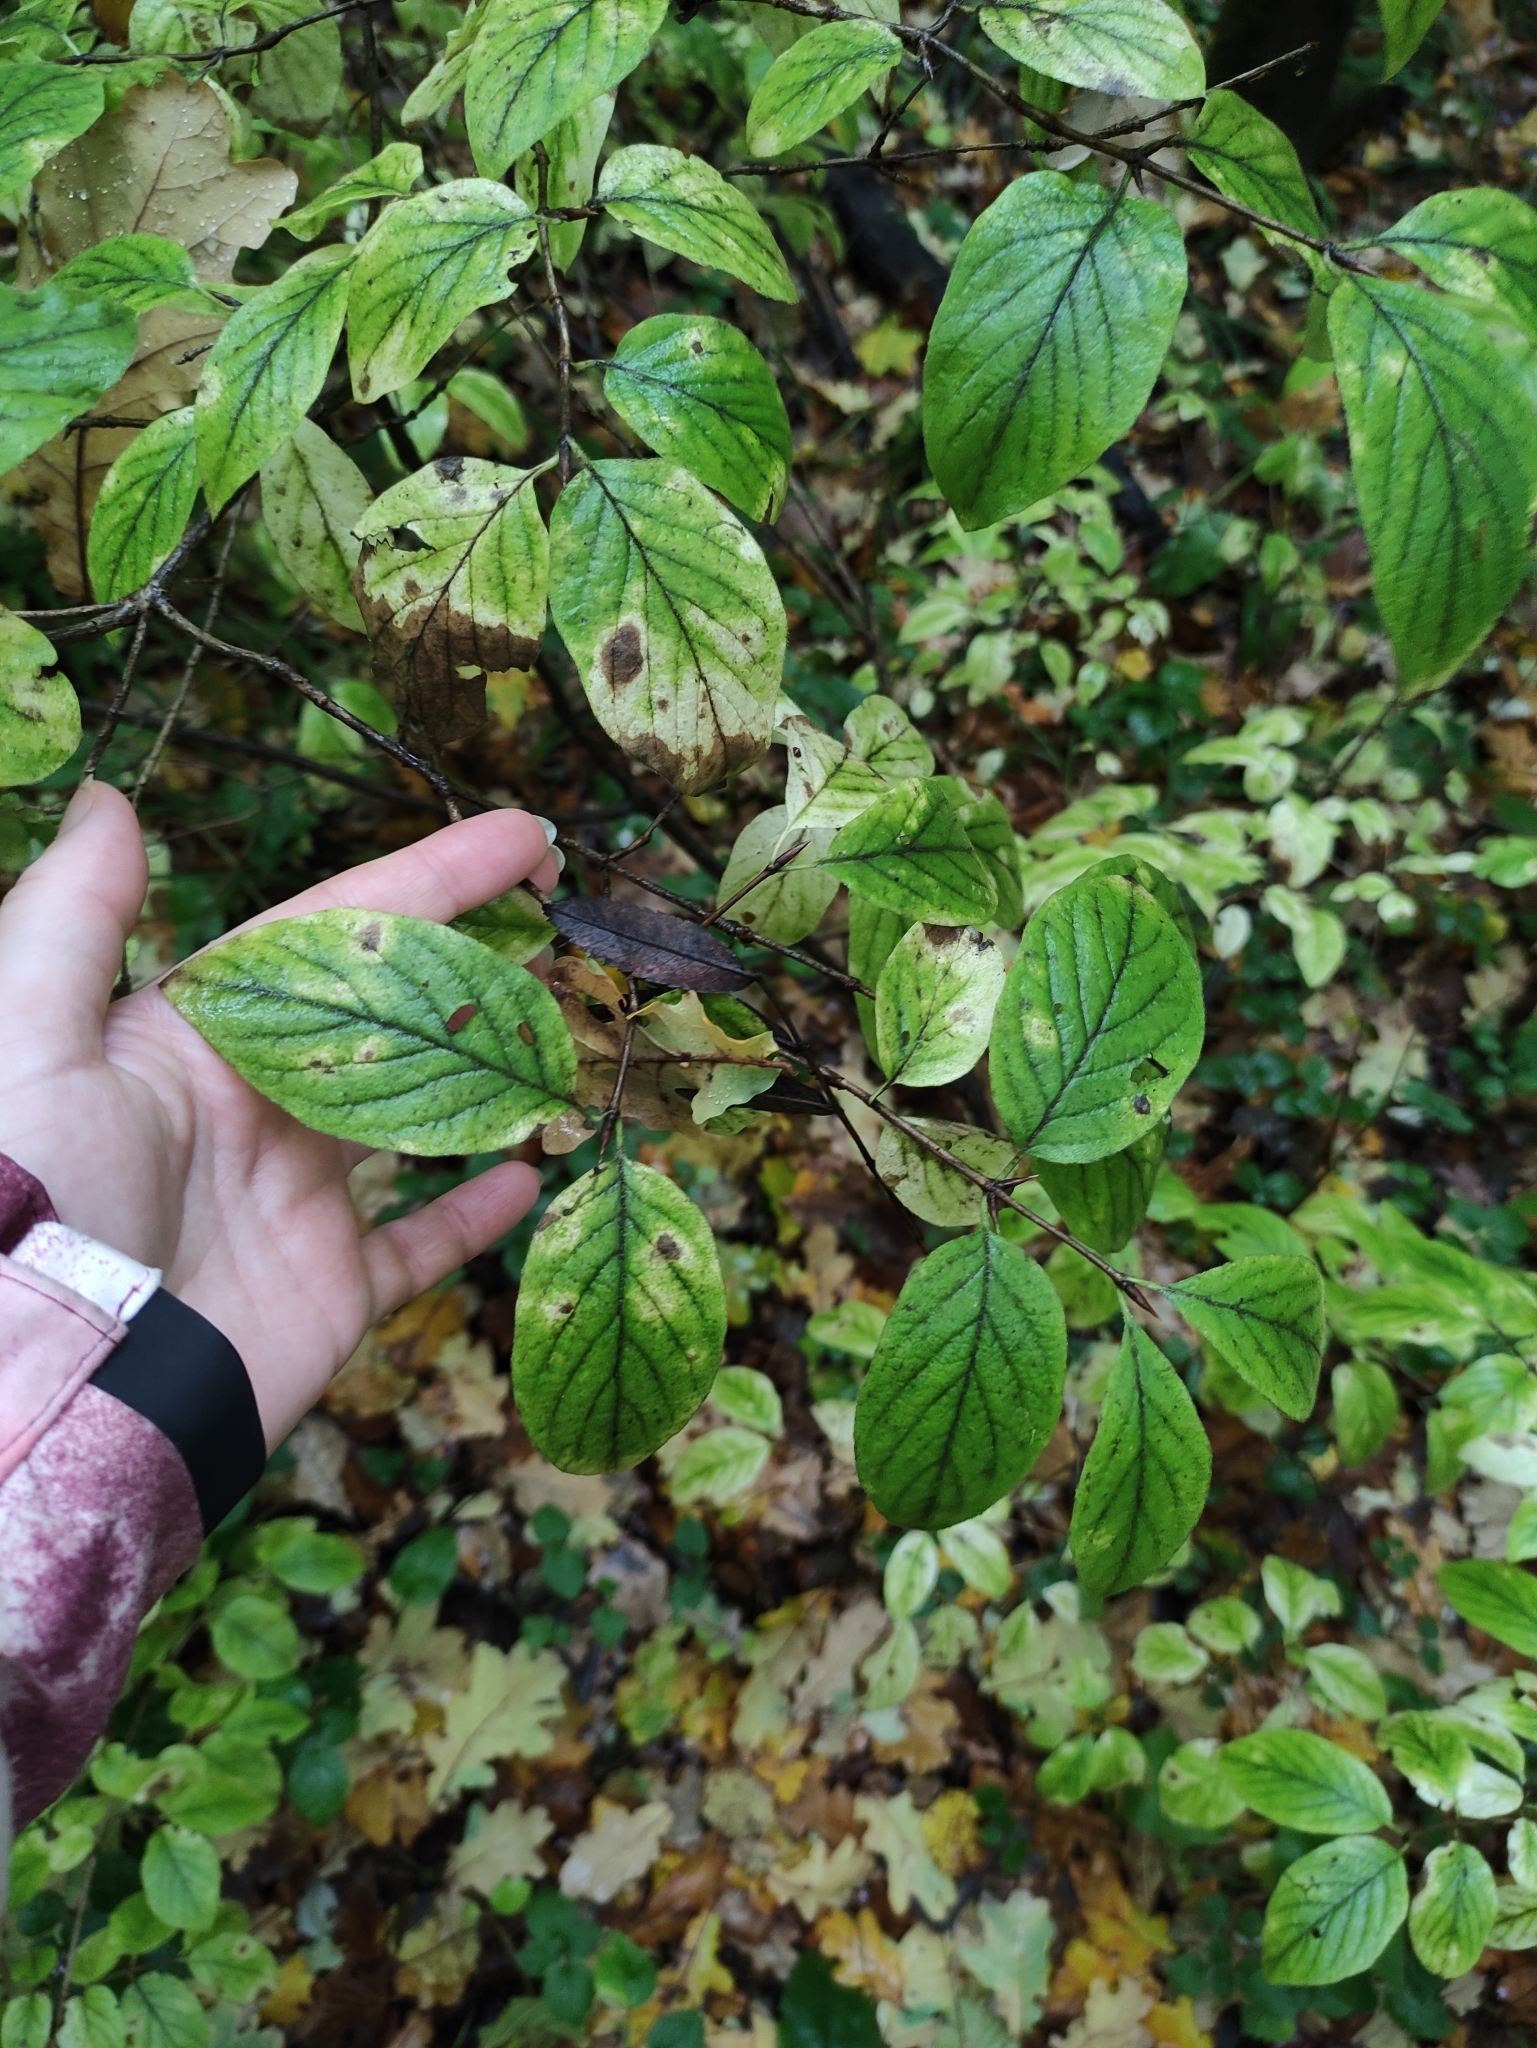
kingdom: Plantae
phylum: Tracheophyta
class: Magnoliopsida
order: Dipsacales
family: Caprifoliaceae
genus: Lonicera
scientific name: Lonicera xylosteum
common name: Fly honeysuckle
